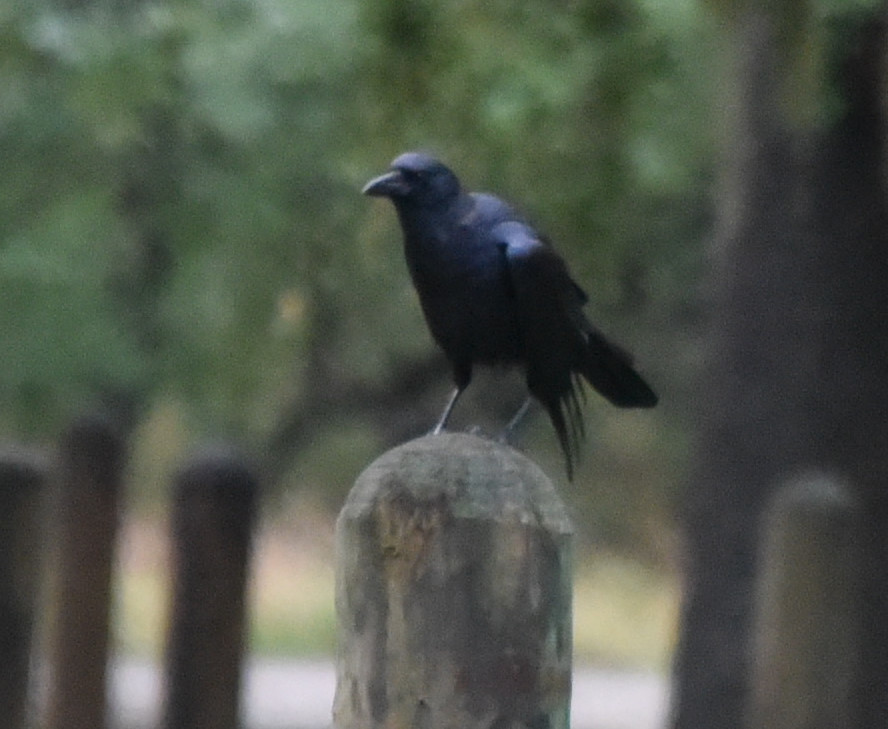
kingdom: Animalia
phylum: Chordata
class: Aves
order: Passeriformes
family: Corvidae
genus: Corvus
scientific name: Corvus brachyrhynchos
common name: American crow
